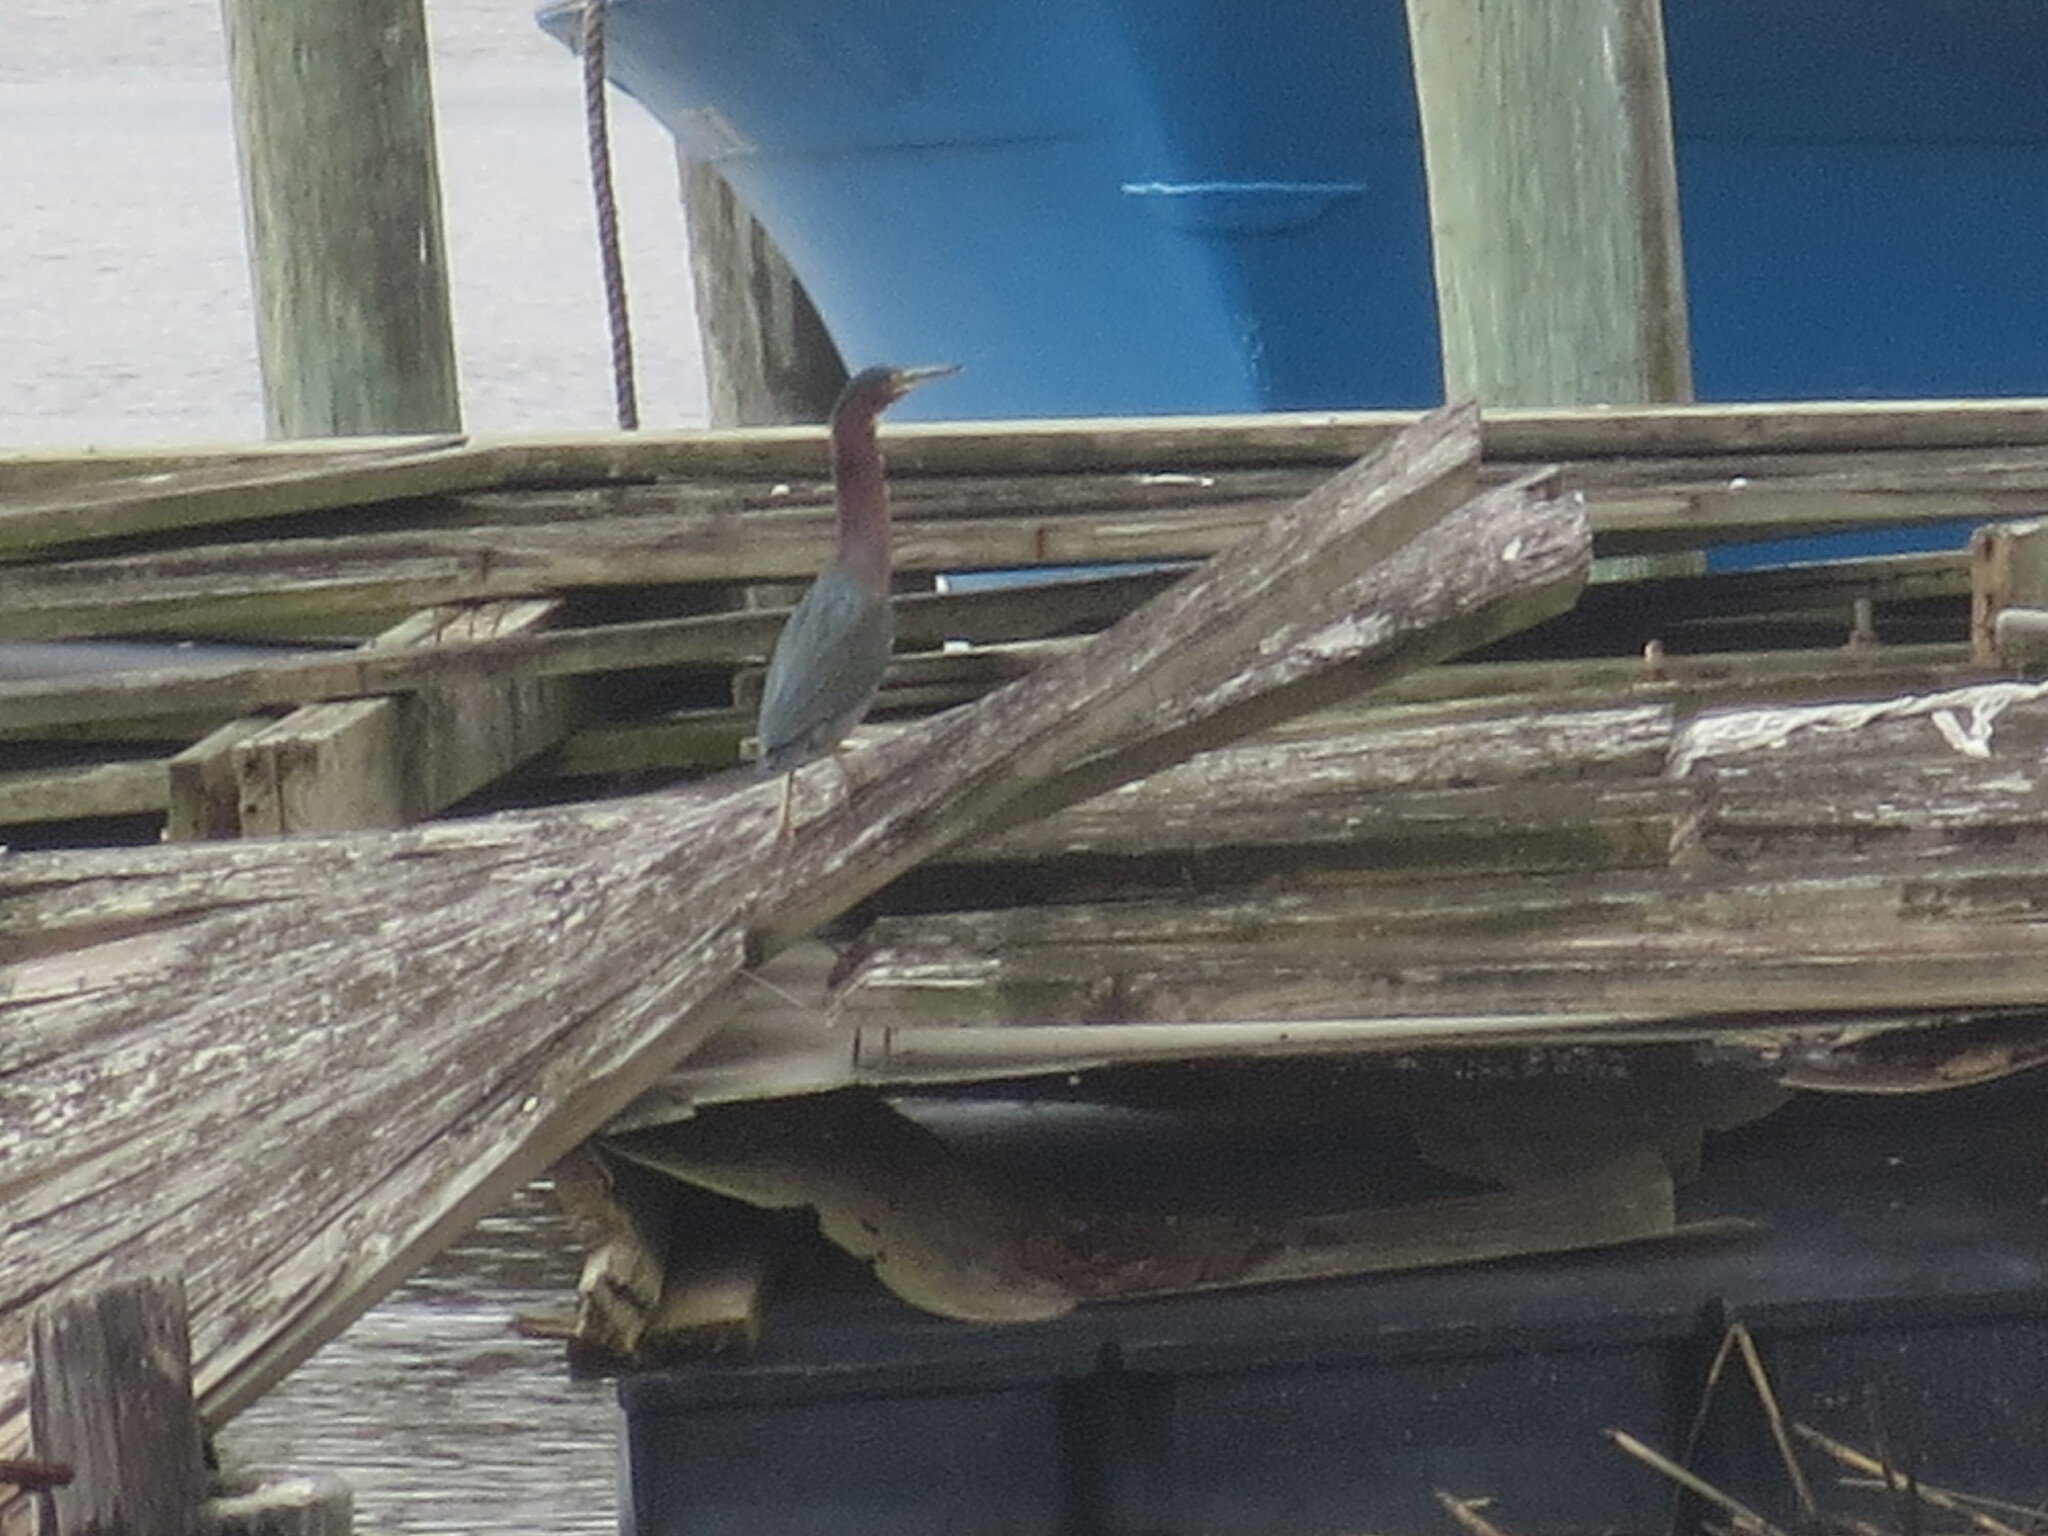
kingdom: Animalia
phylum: Chordata
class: Aves
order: Pelecaniformes
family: Ardeidae
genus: Butorides
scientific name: Butorides virescens
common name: Green heron
